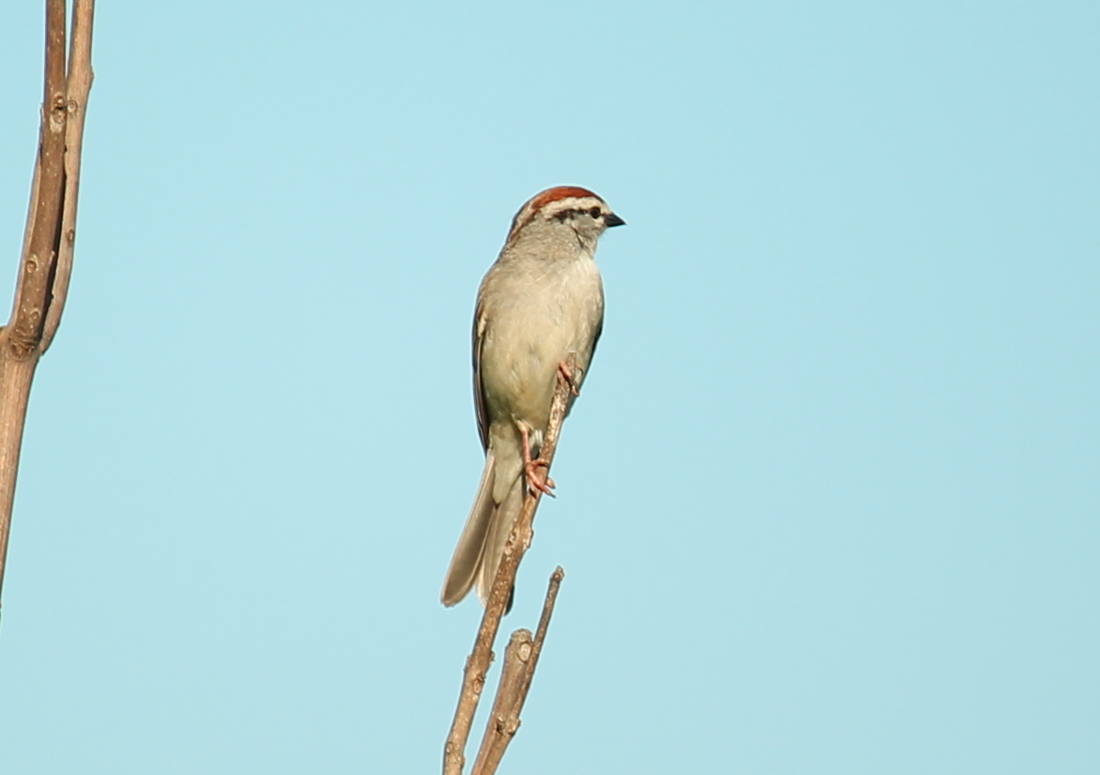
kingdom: Animalia
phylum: Chordata
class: Aves
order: Passeriformes
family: Passerellidae
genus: Spizella
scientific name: Spizella passerina
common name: Chipping sparrow
